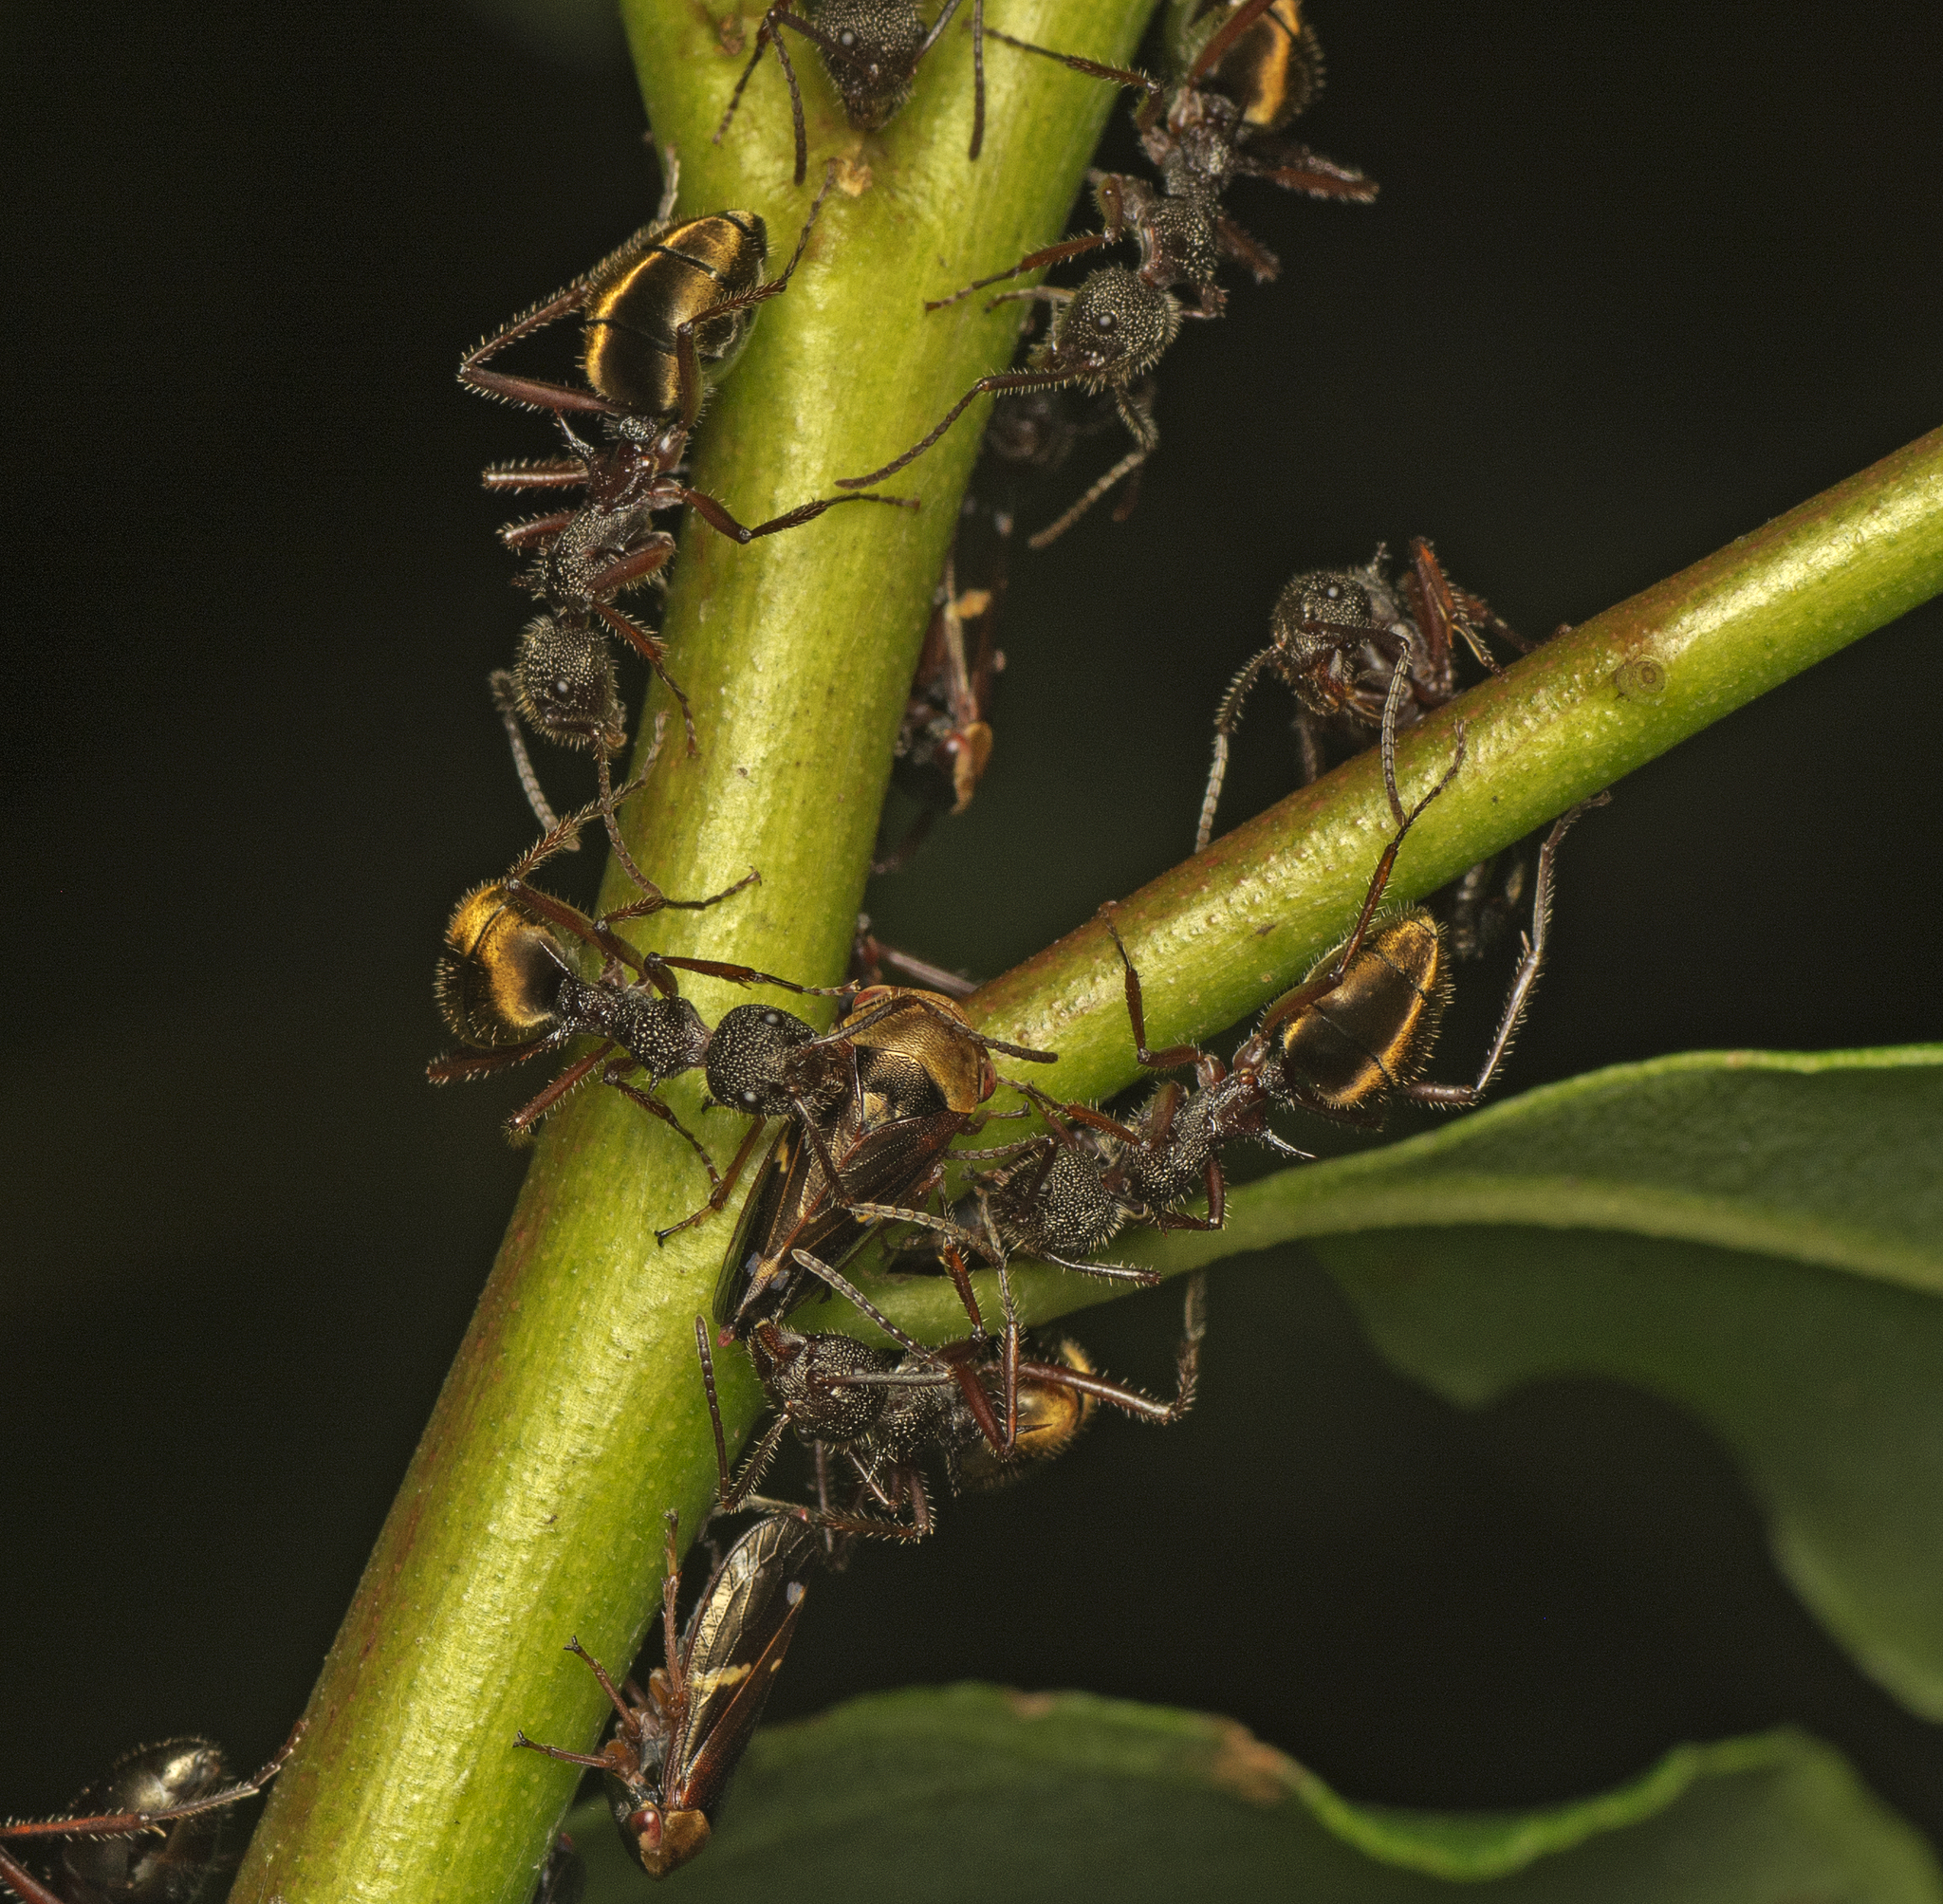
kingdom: Animalia
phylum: Arthropoda
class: Insecta
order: Hymenoptera
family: Formicidae
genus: Dolichoderus
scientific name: Dolichoderus extensispinus
